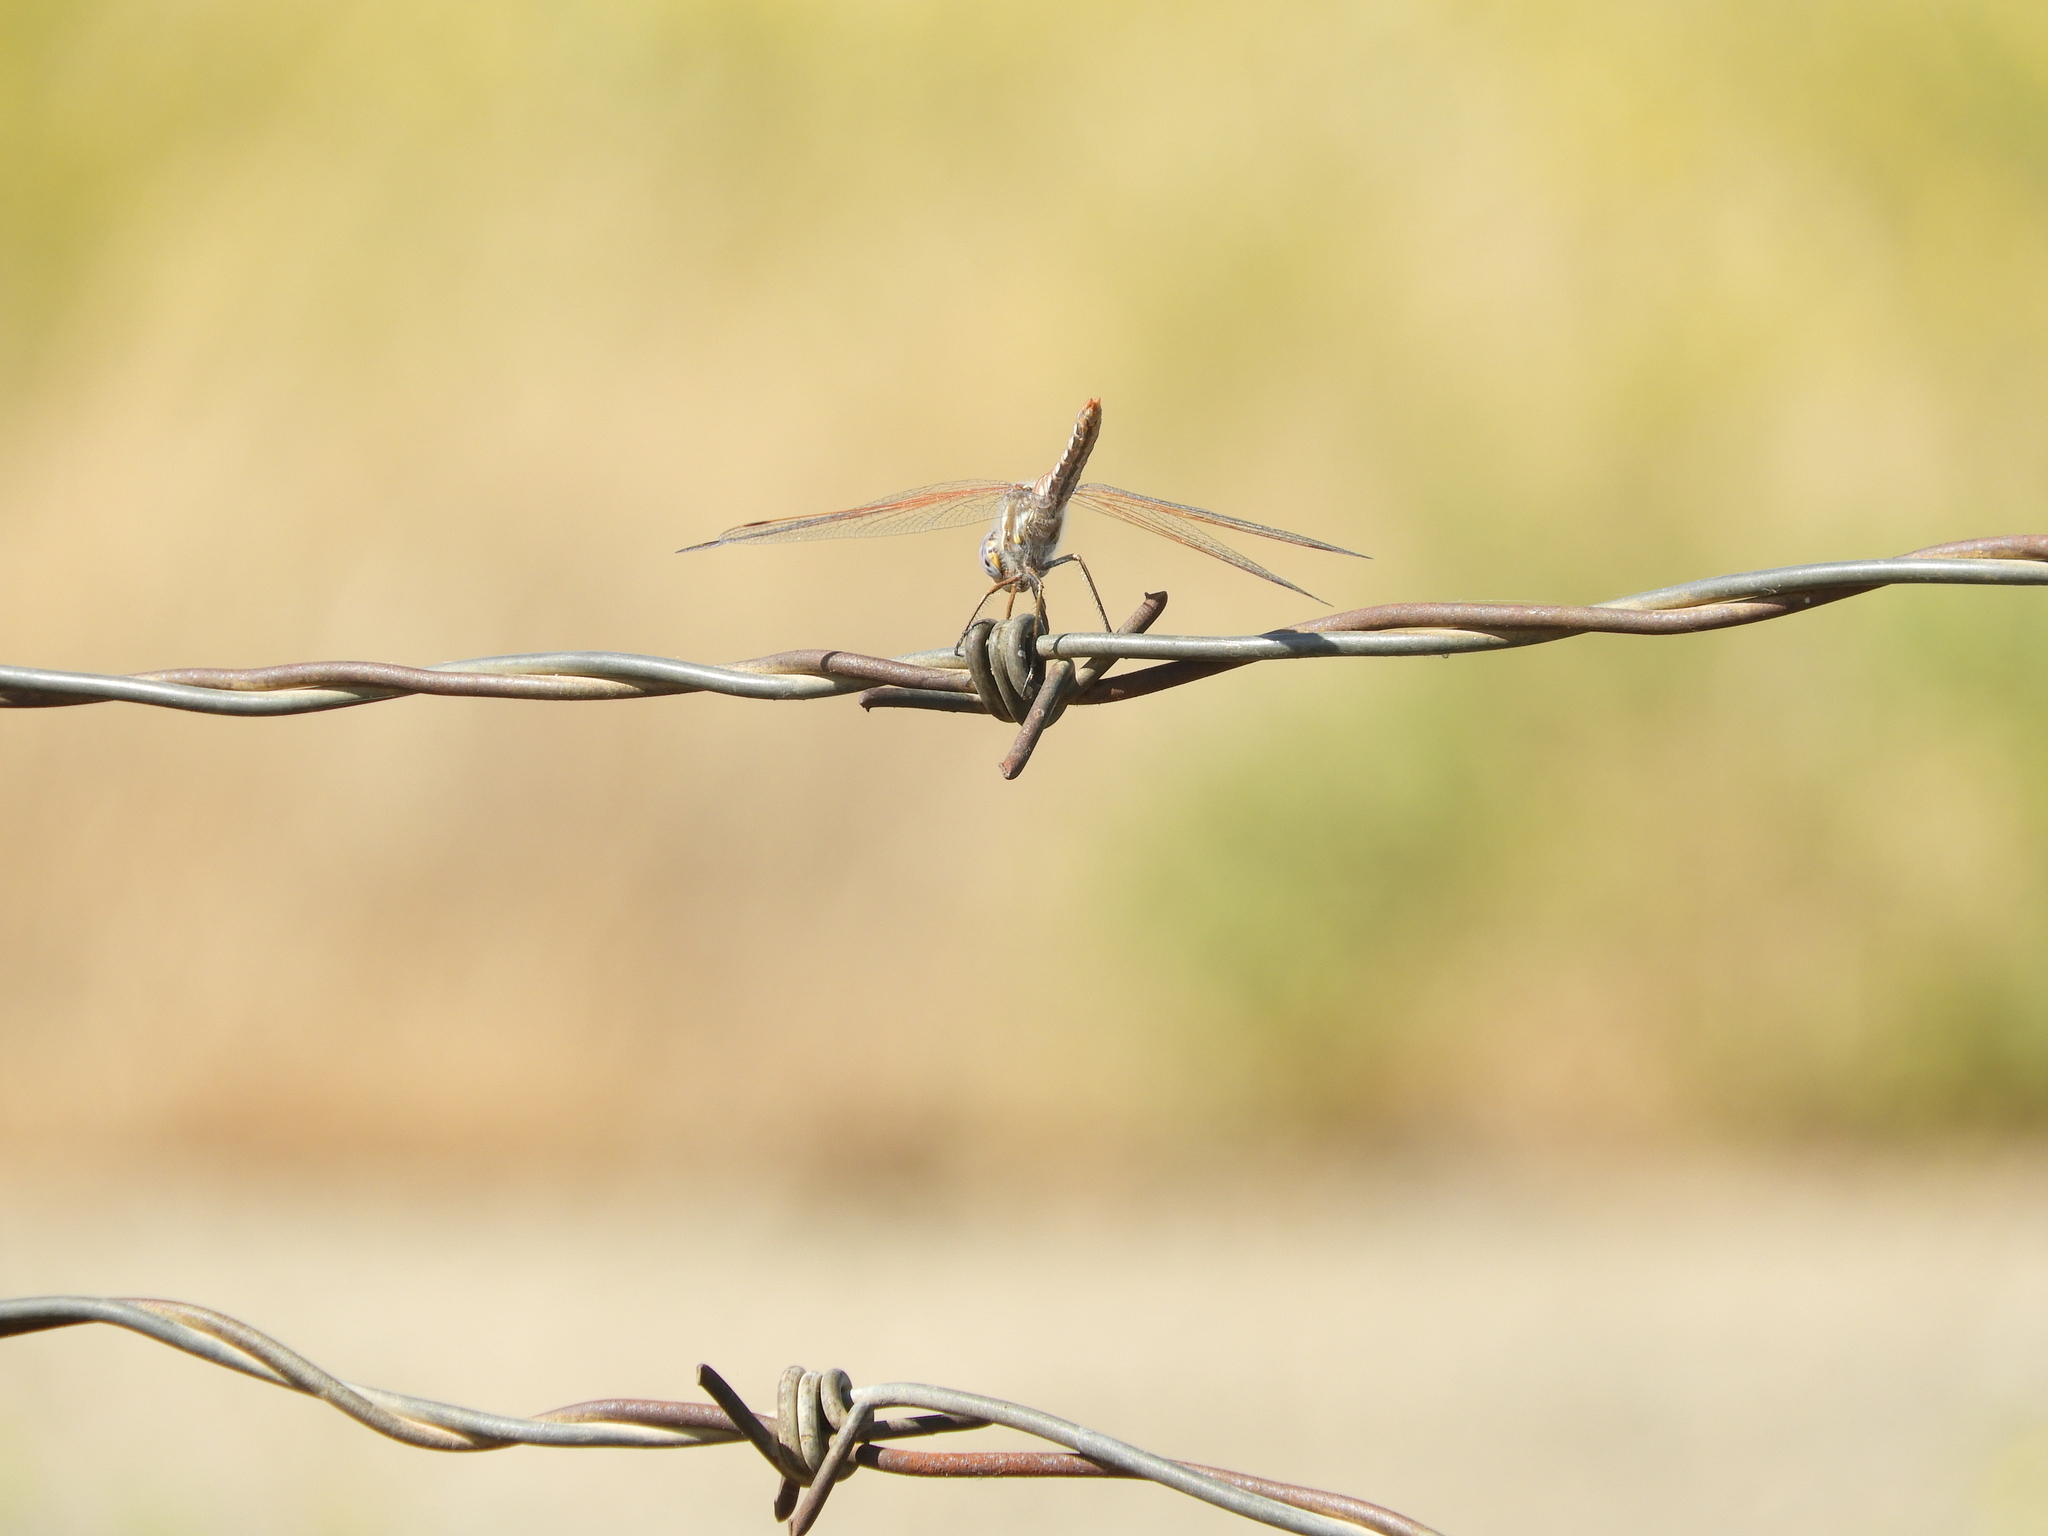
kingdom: Animalia
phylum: Arthropoda
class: Insecta
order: Odonata
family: Libellulidae
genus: Sympetrum
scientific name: Sympetrum corruptum
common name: Variegated meadowhawk
